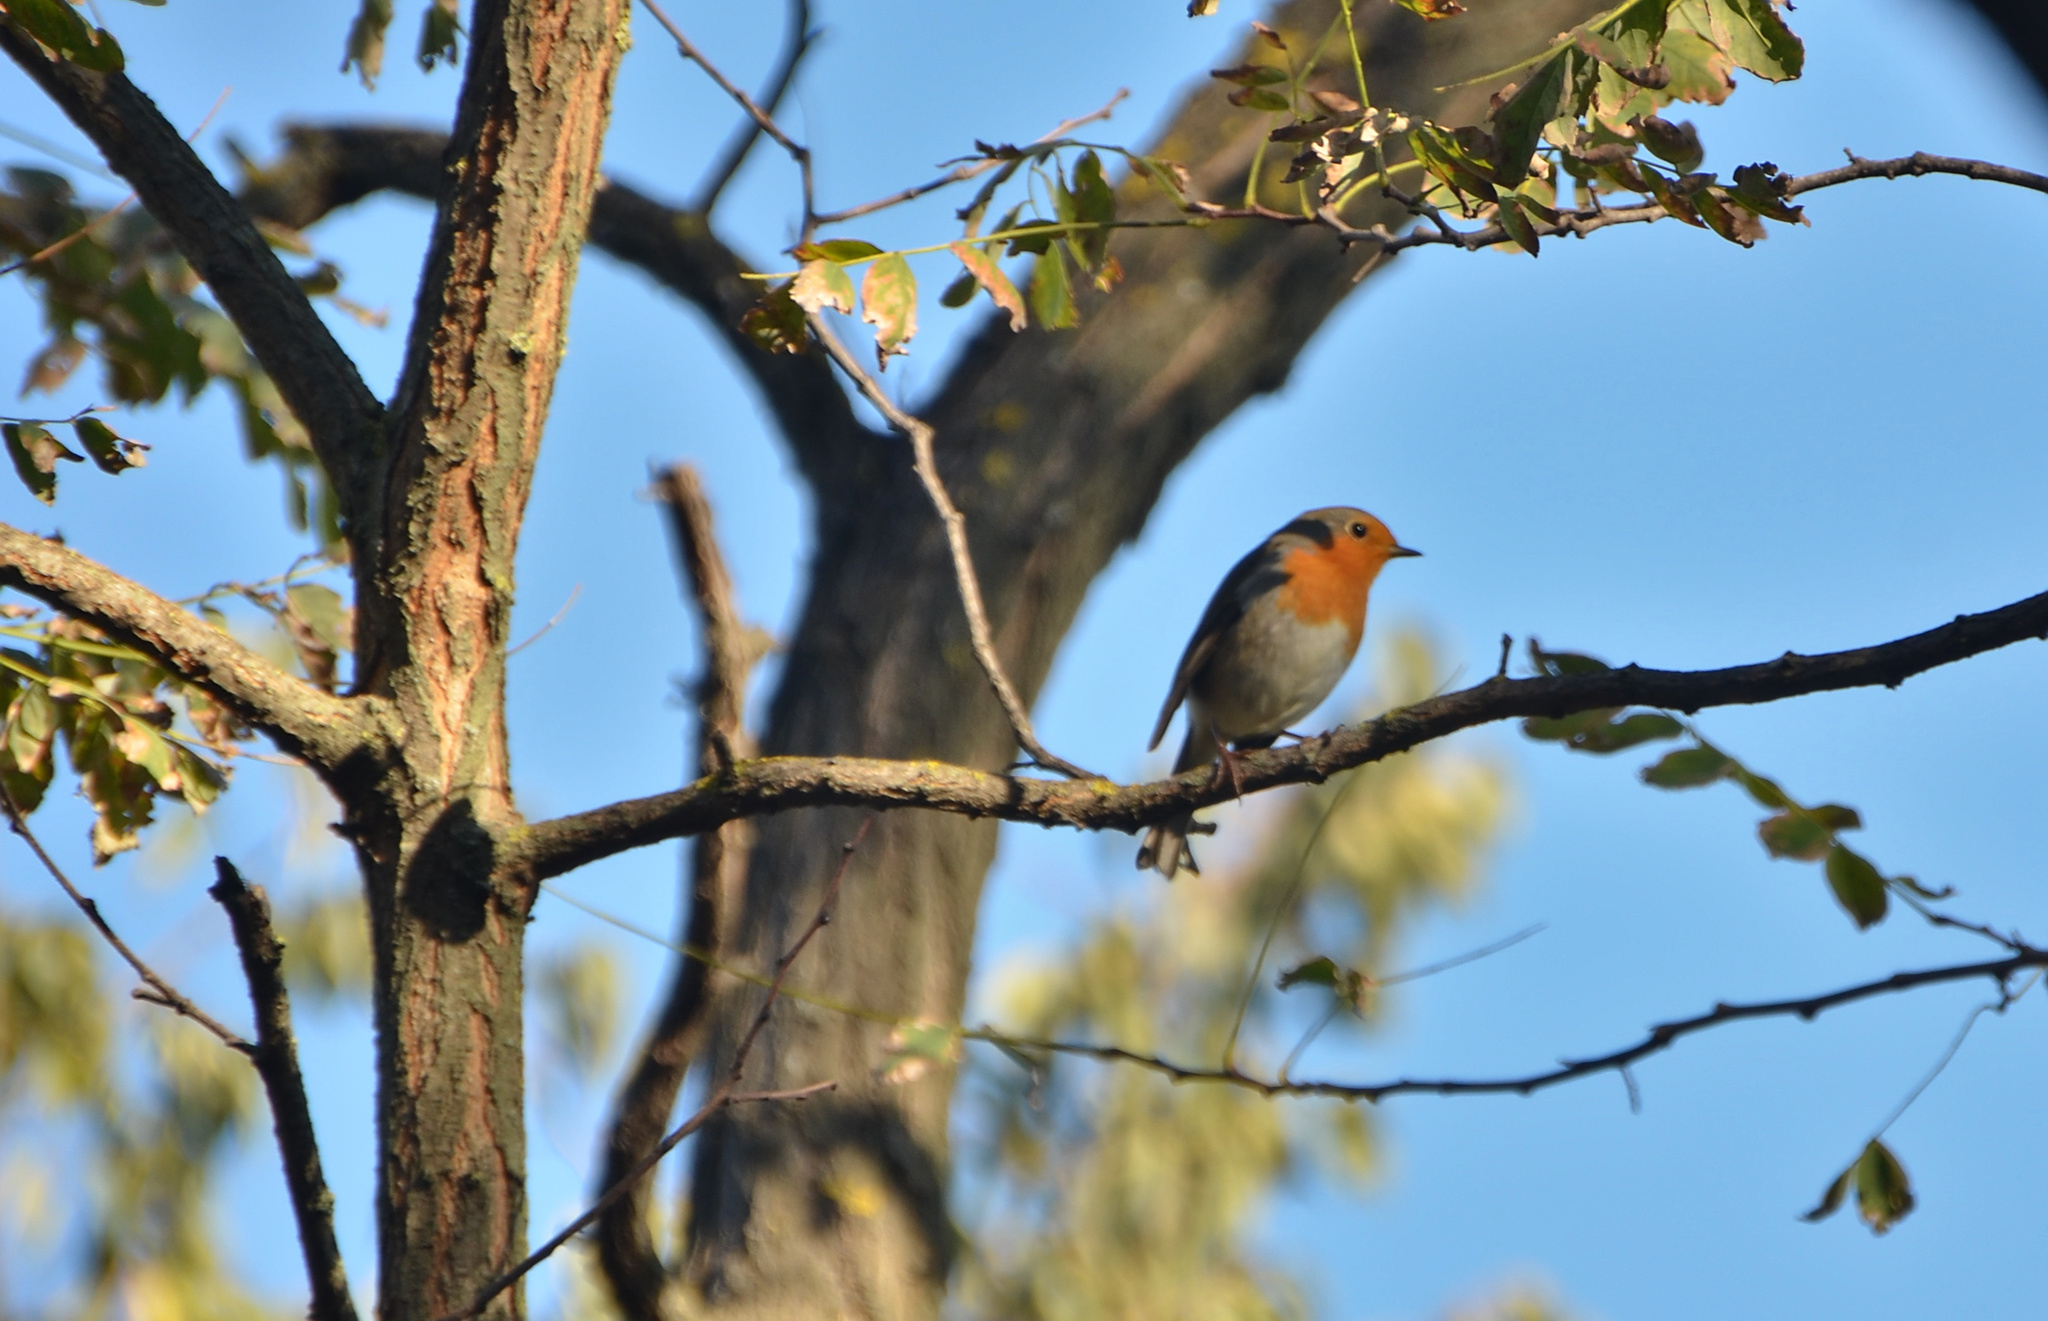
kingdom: Animalia
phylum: Chordata
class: Aves
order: Passeriformes
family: Muscicapidae
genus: Erithacus
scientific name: Erithacus rubecula
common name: European robin
